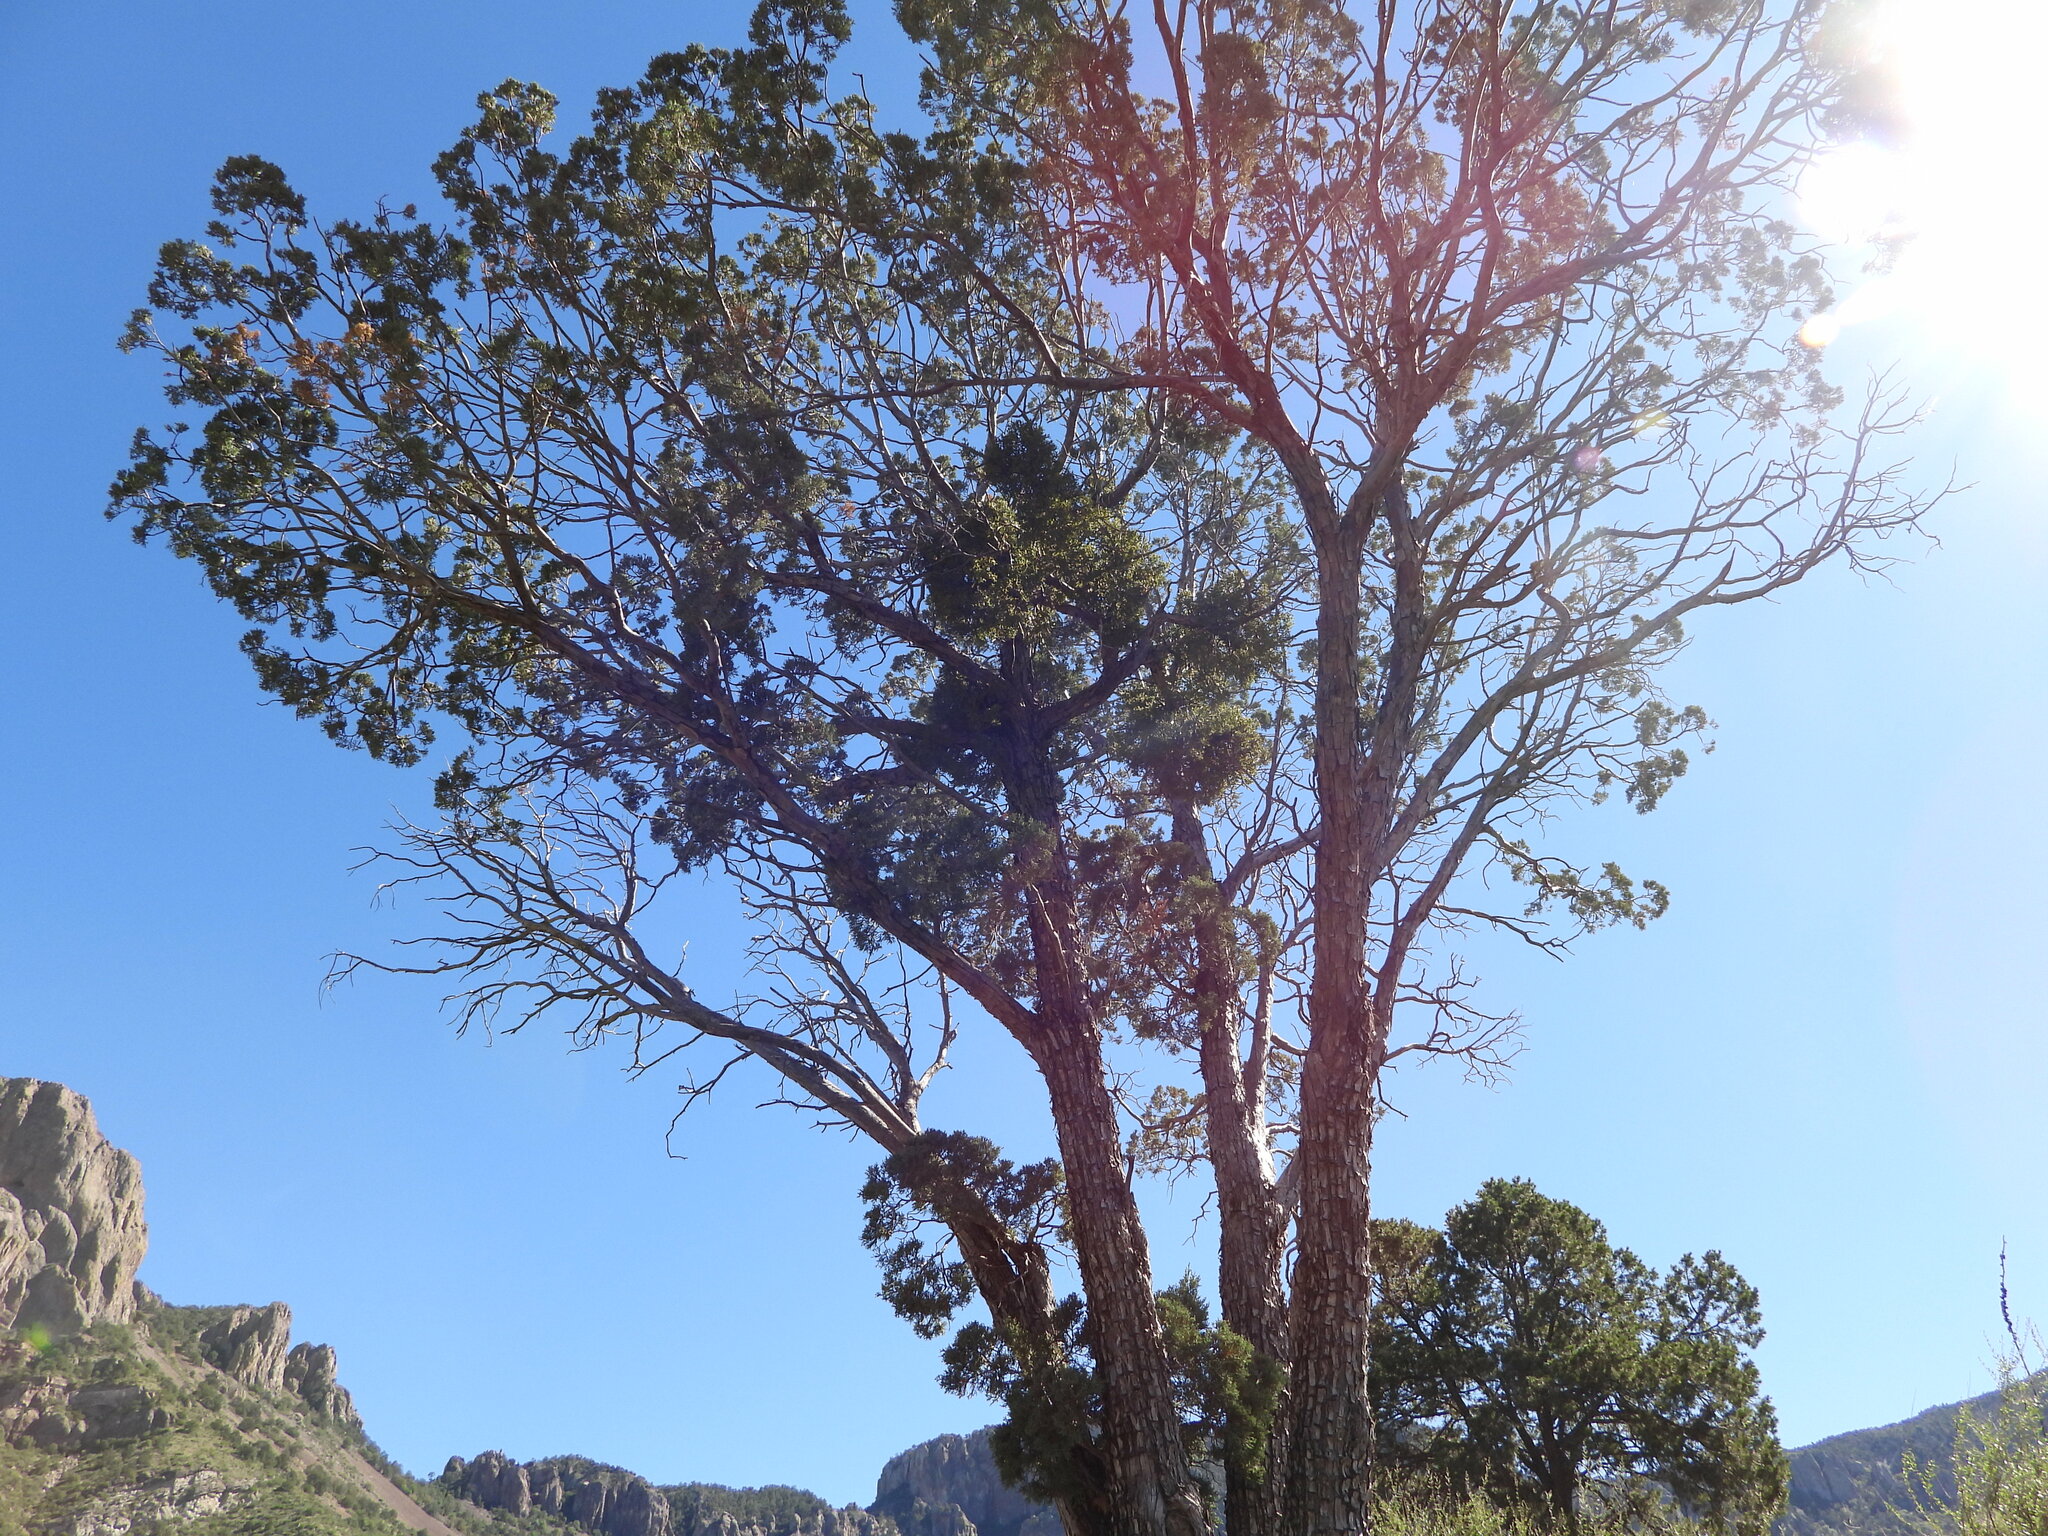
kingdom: Plantae
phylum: Tracheophyta
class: Pinopsida
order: Pinales
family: Cupressaceae
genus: Juniperus
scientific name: Juniperus deppeana
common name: Alligator juniper
